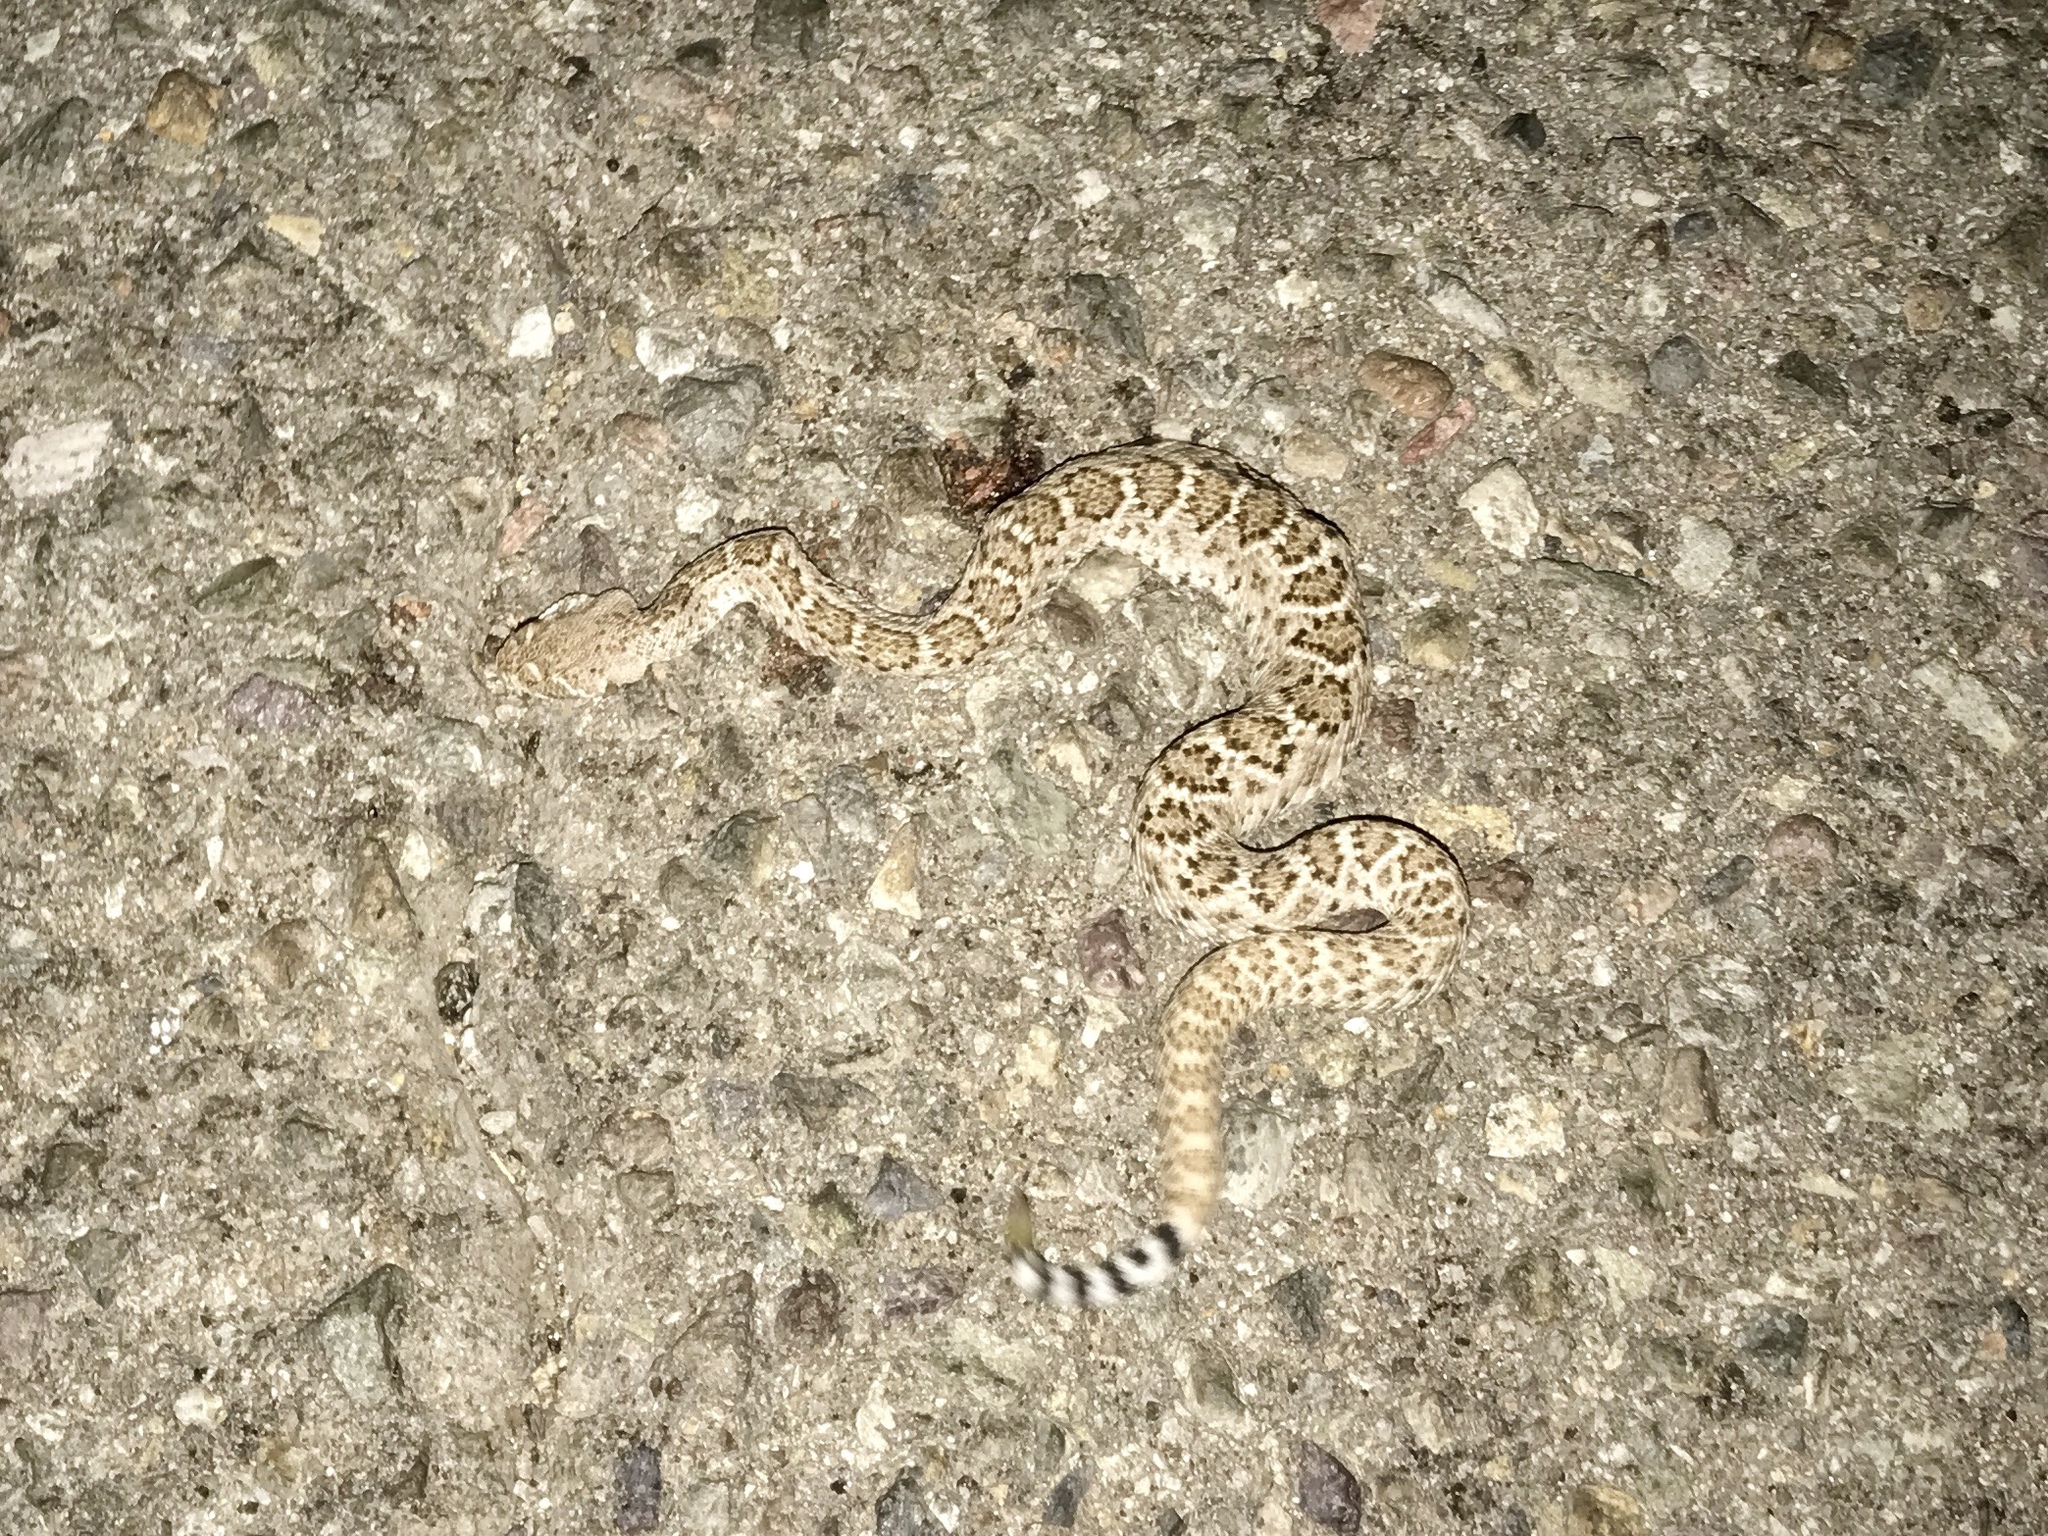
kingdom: Animalia
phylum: Chordata
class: Squamata
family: Viperidae
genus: Crotalus
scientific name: Crotalus atrox
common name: Western diamond-backed rattlesnake
